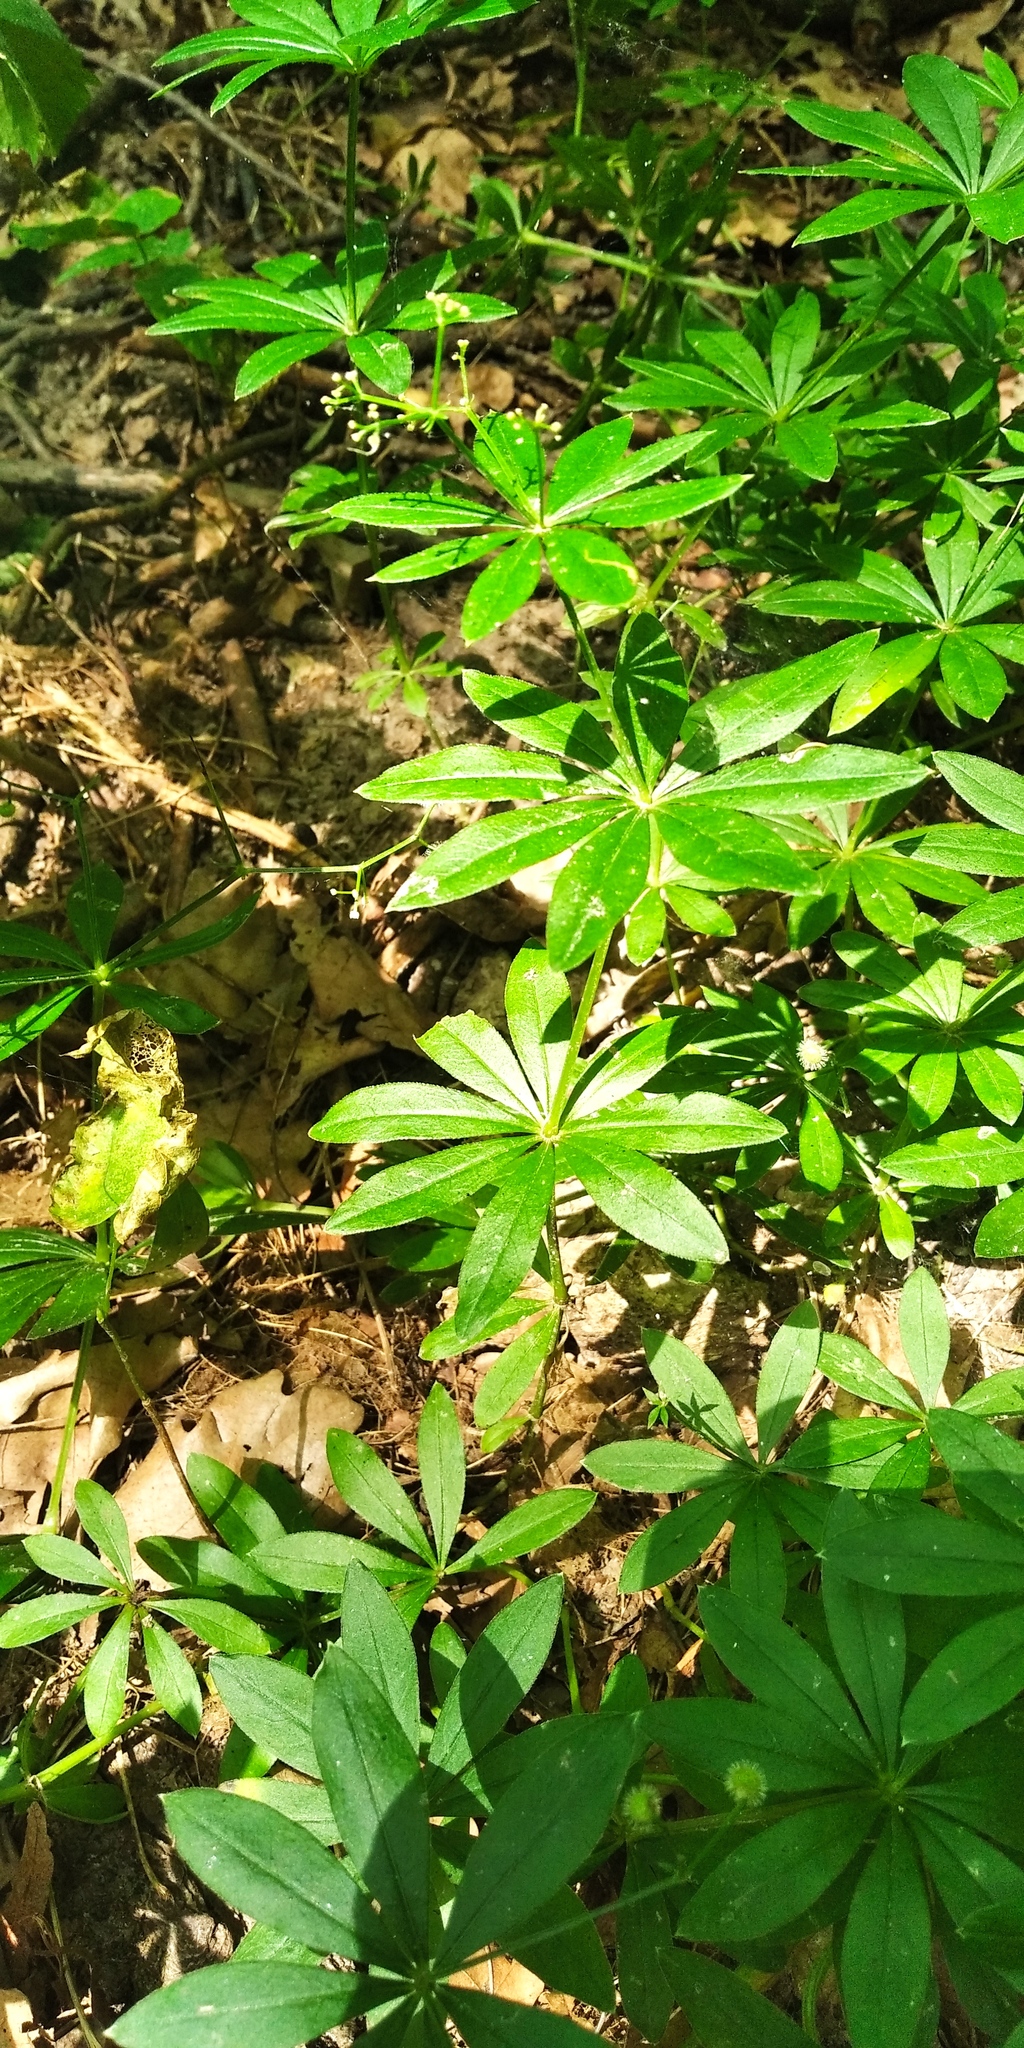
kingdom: Plantae
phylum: Tracheophyta
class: Magnoliopsida
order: Gentianales
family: Rubiaceae
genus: Galium
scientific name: Galium odoratum
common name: Sweet woodruff
